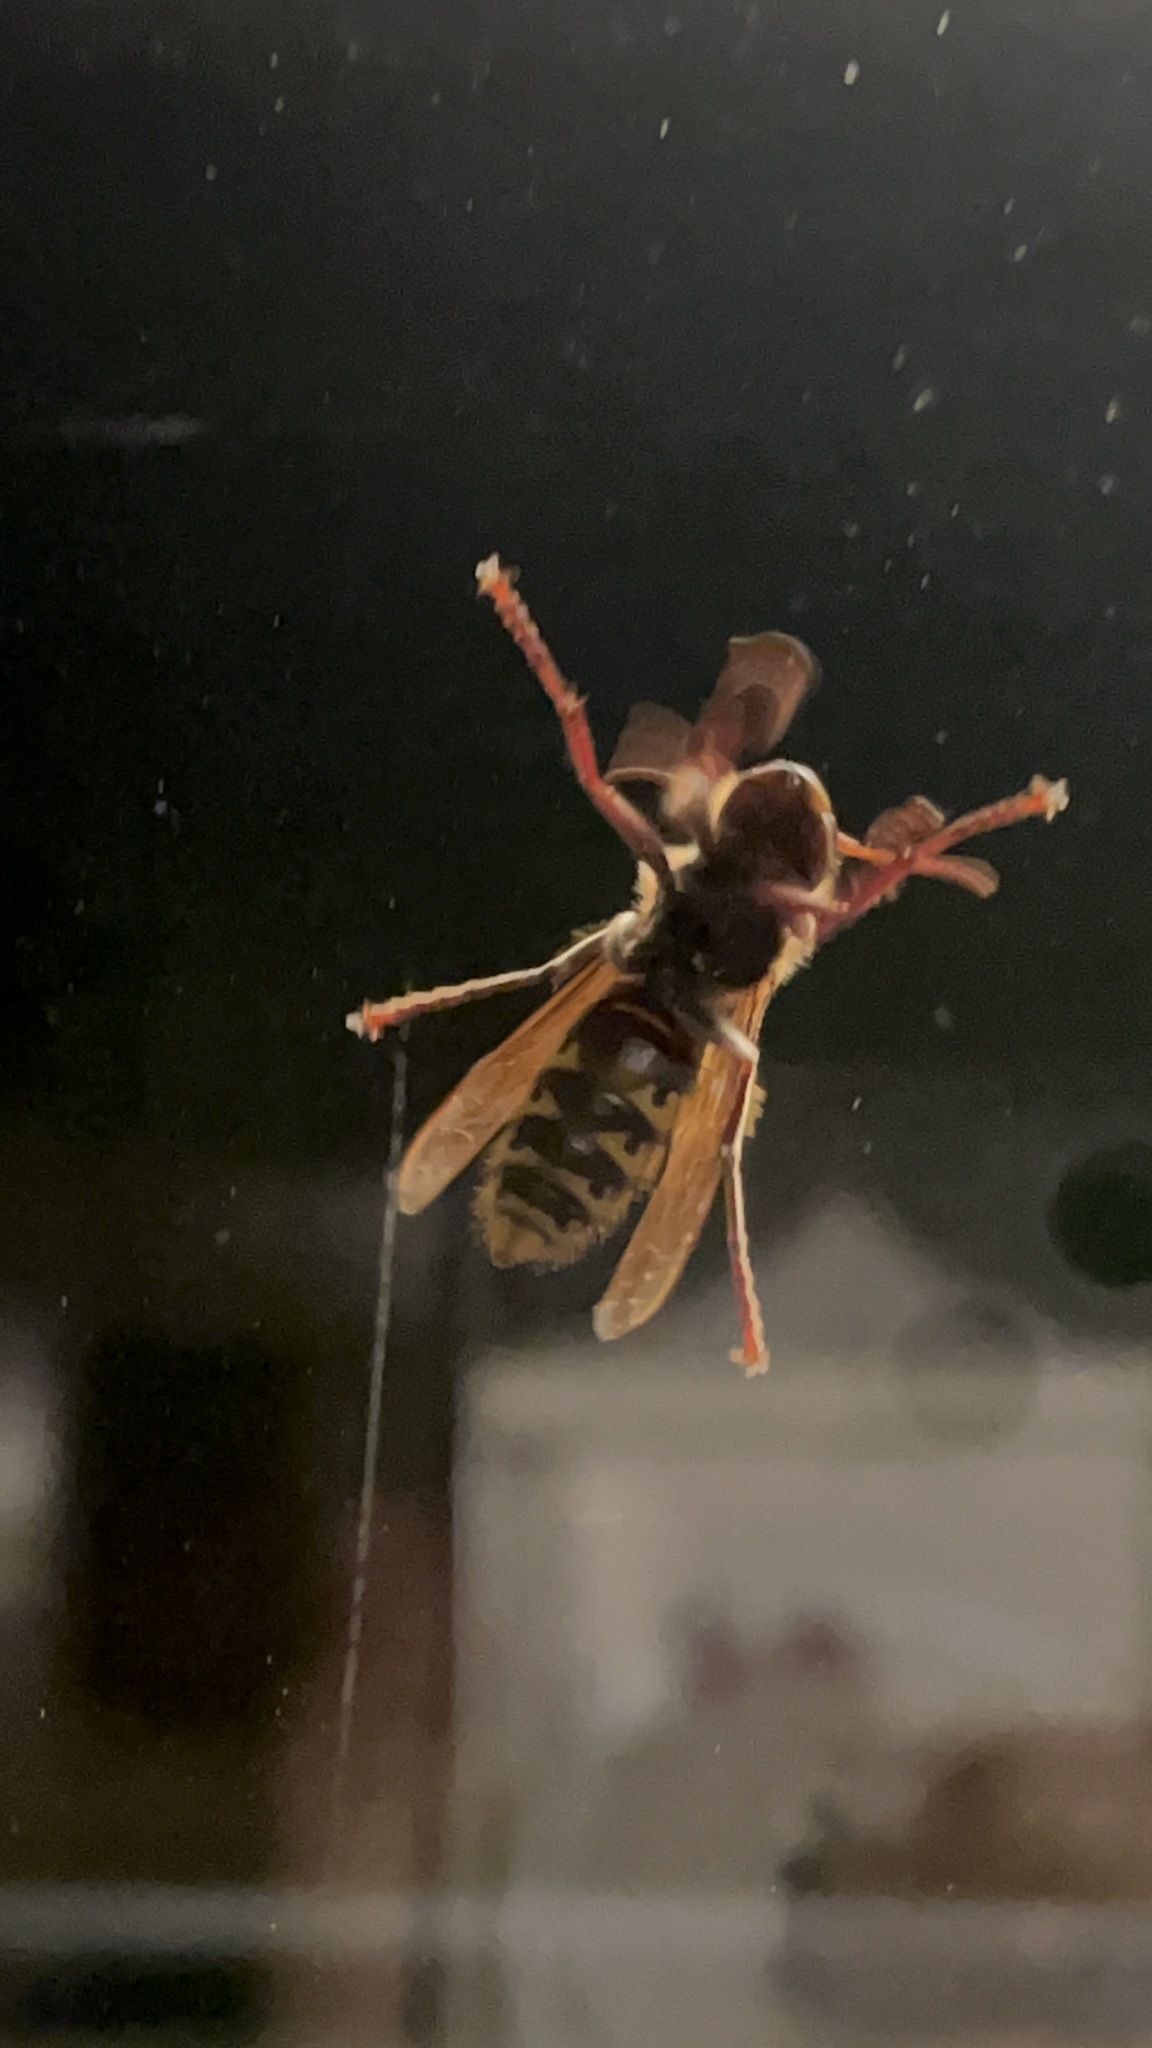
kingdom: Animalia
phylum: Arthropoda
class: Insecta
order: Hymenoptera
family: Vespidae
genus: Vespa
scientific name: Vespa crabro
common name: Hornet
